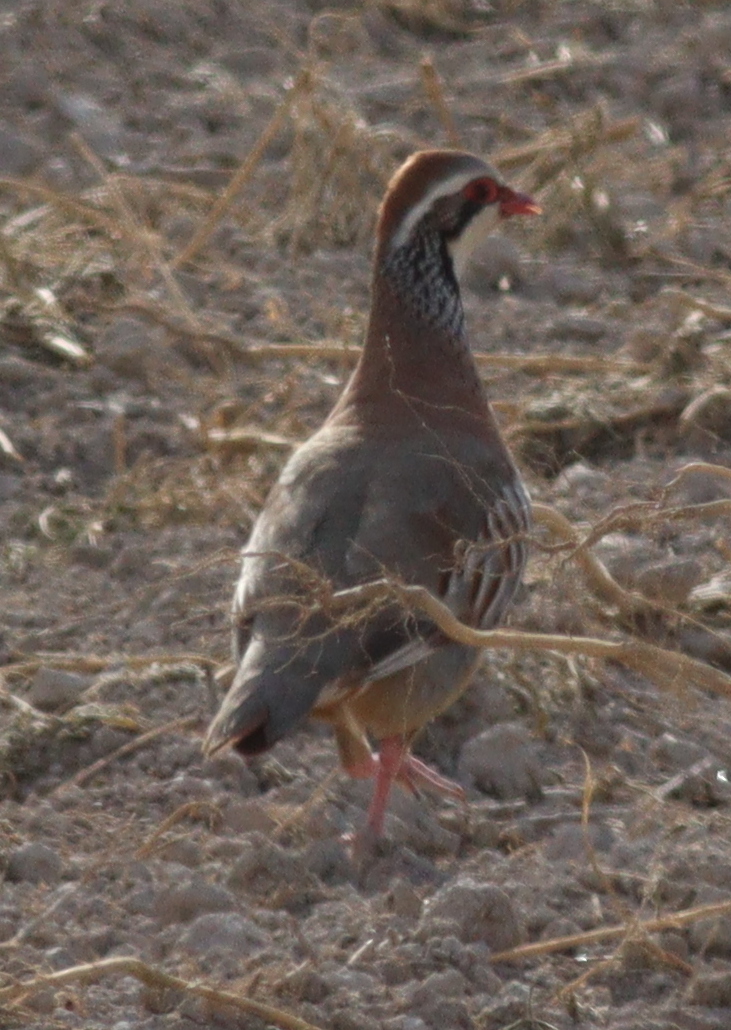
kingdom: Animalia
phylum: Chordata
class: Aves
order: Galliformes
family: Phasianidae
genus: Alectoris
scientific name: Alectoris rufa
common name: Red-legged partridge
